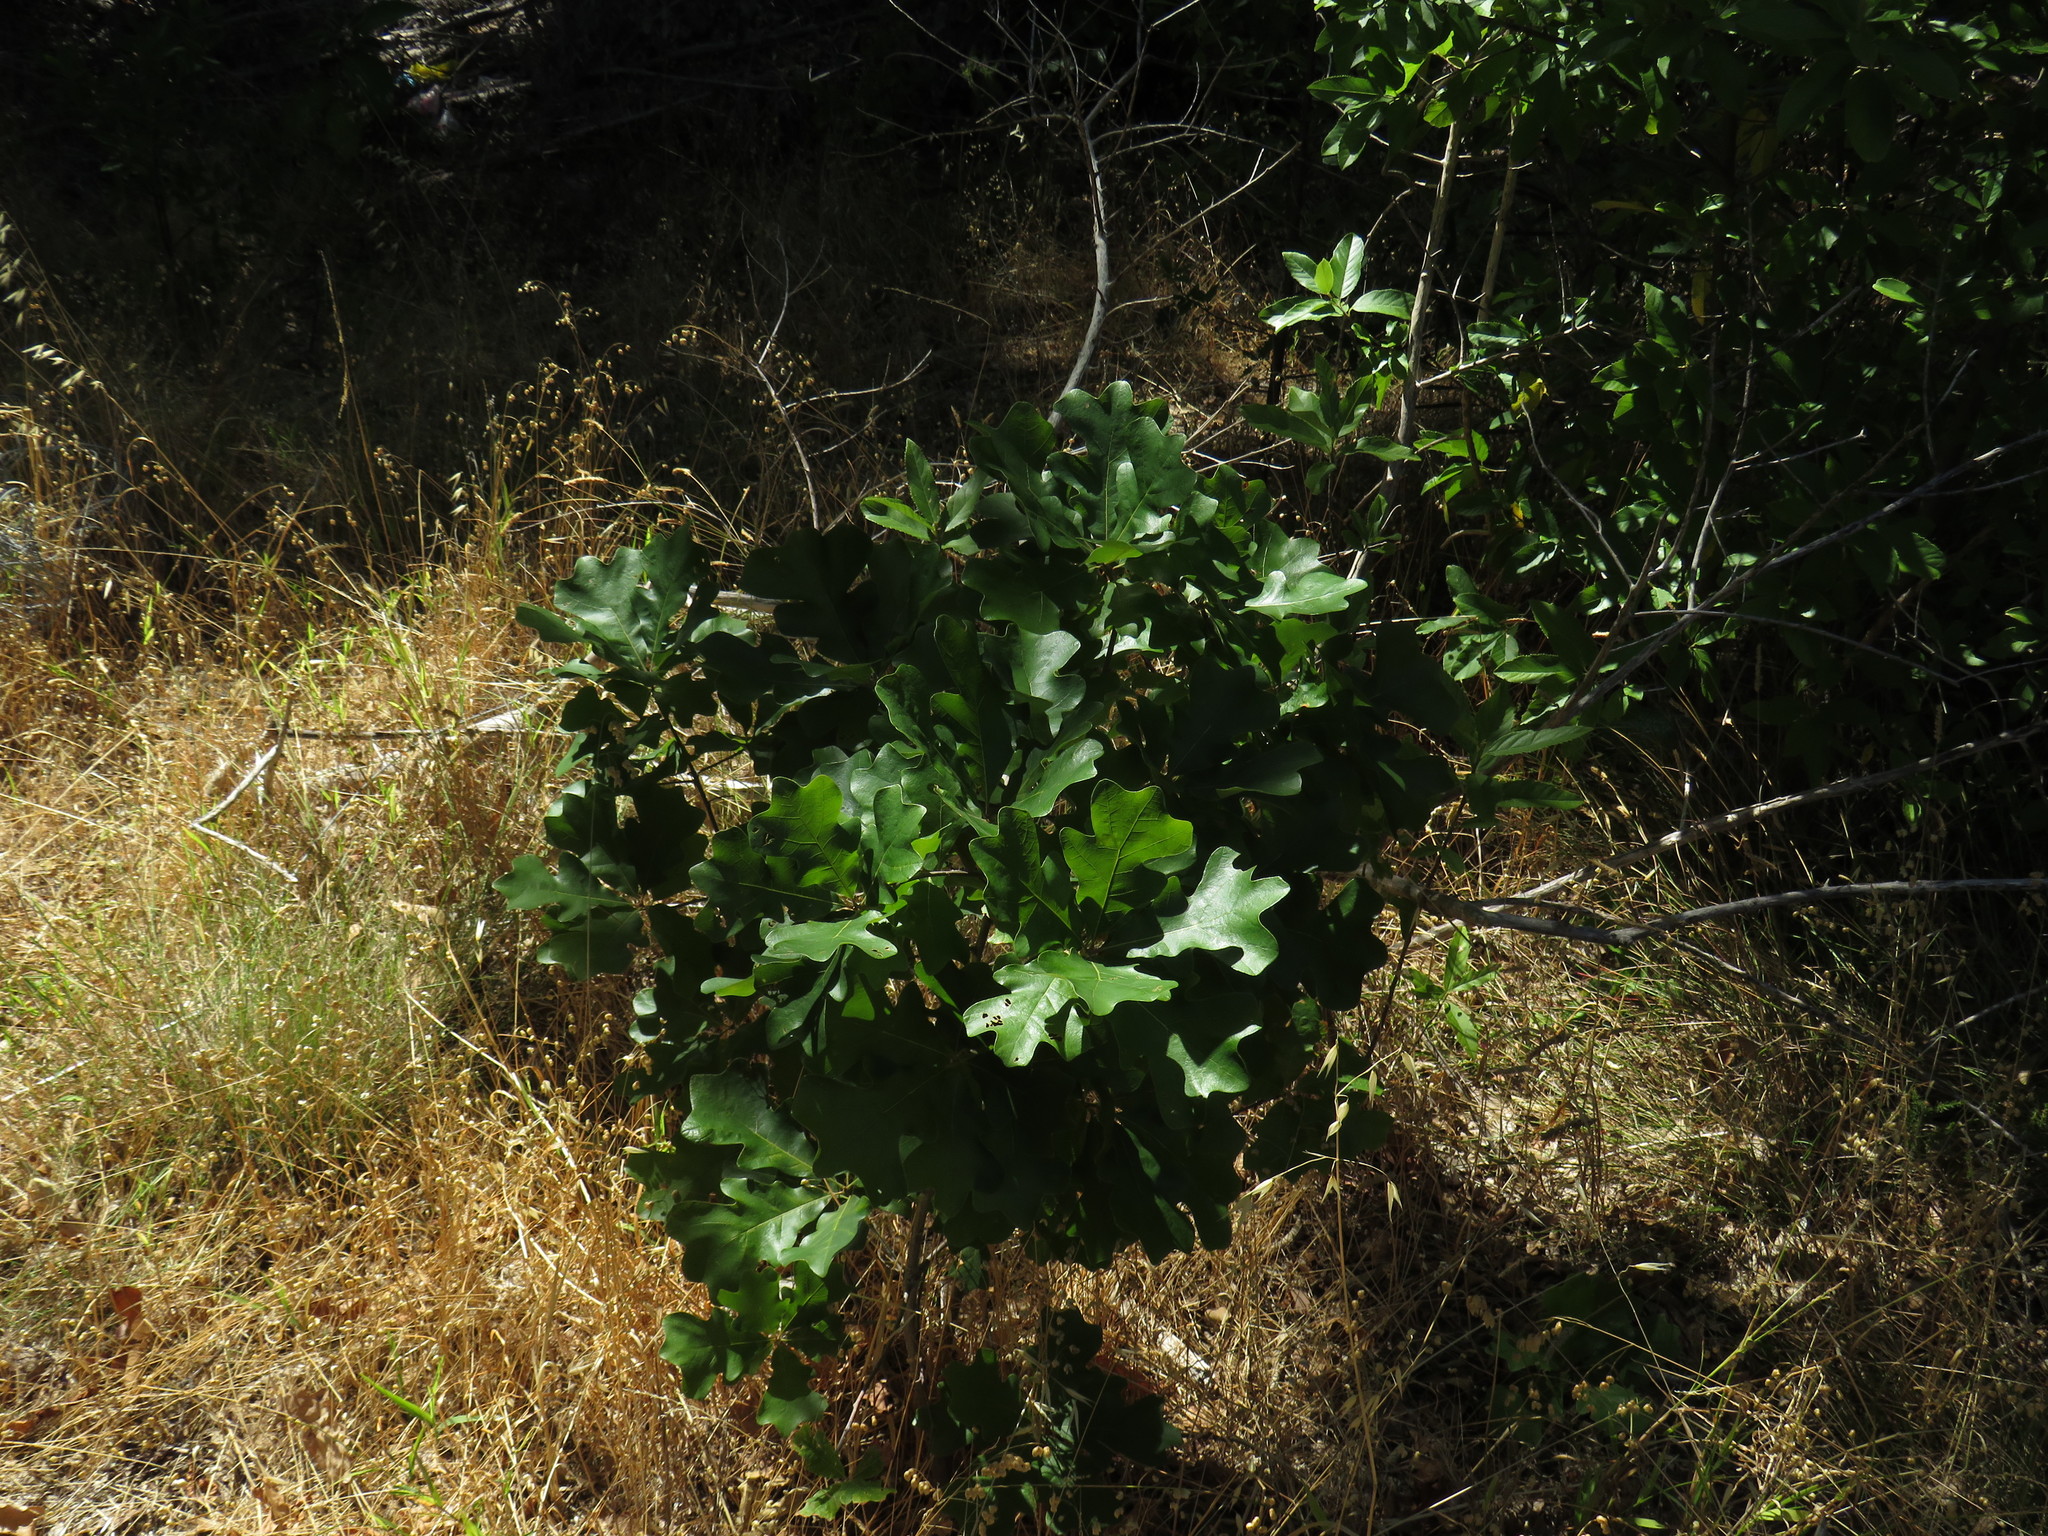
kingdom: Plantae
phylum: Tracheophyta
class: Magnoliopsida
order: Fagales
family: Fagaceae
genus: Quercus
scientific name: Quercus bebbiana
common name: Bebb's oak
